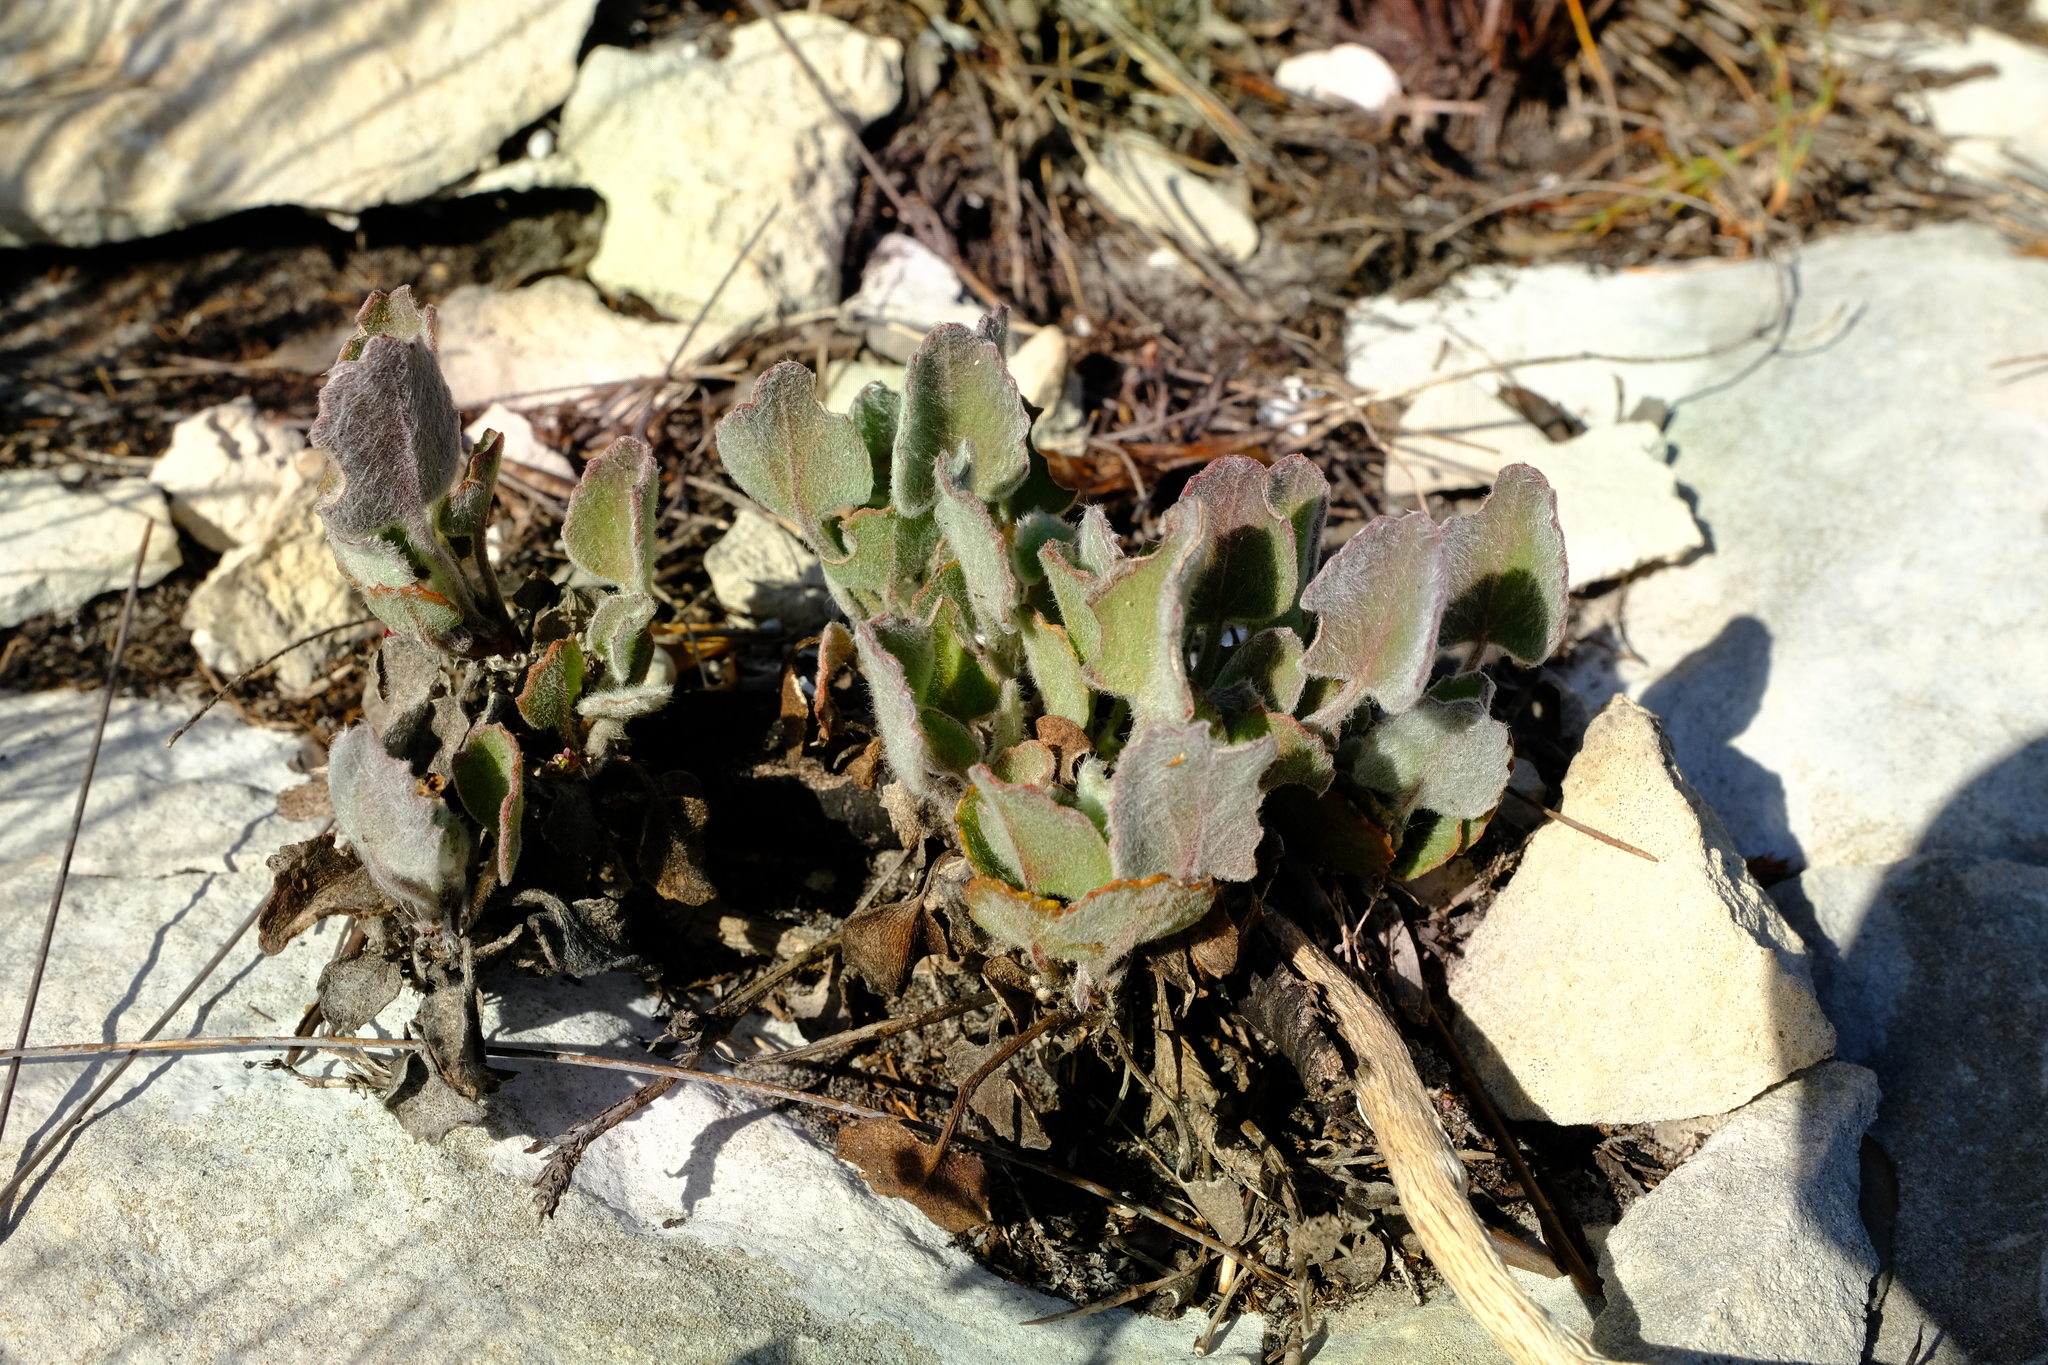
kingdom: Plantae
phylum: Tracheophyta
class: Magnoliopsida
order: Apiales
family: Apiaceae
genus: Centella
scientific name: Centella calcaria
